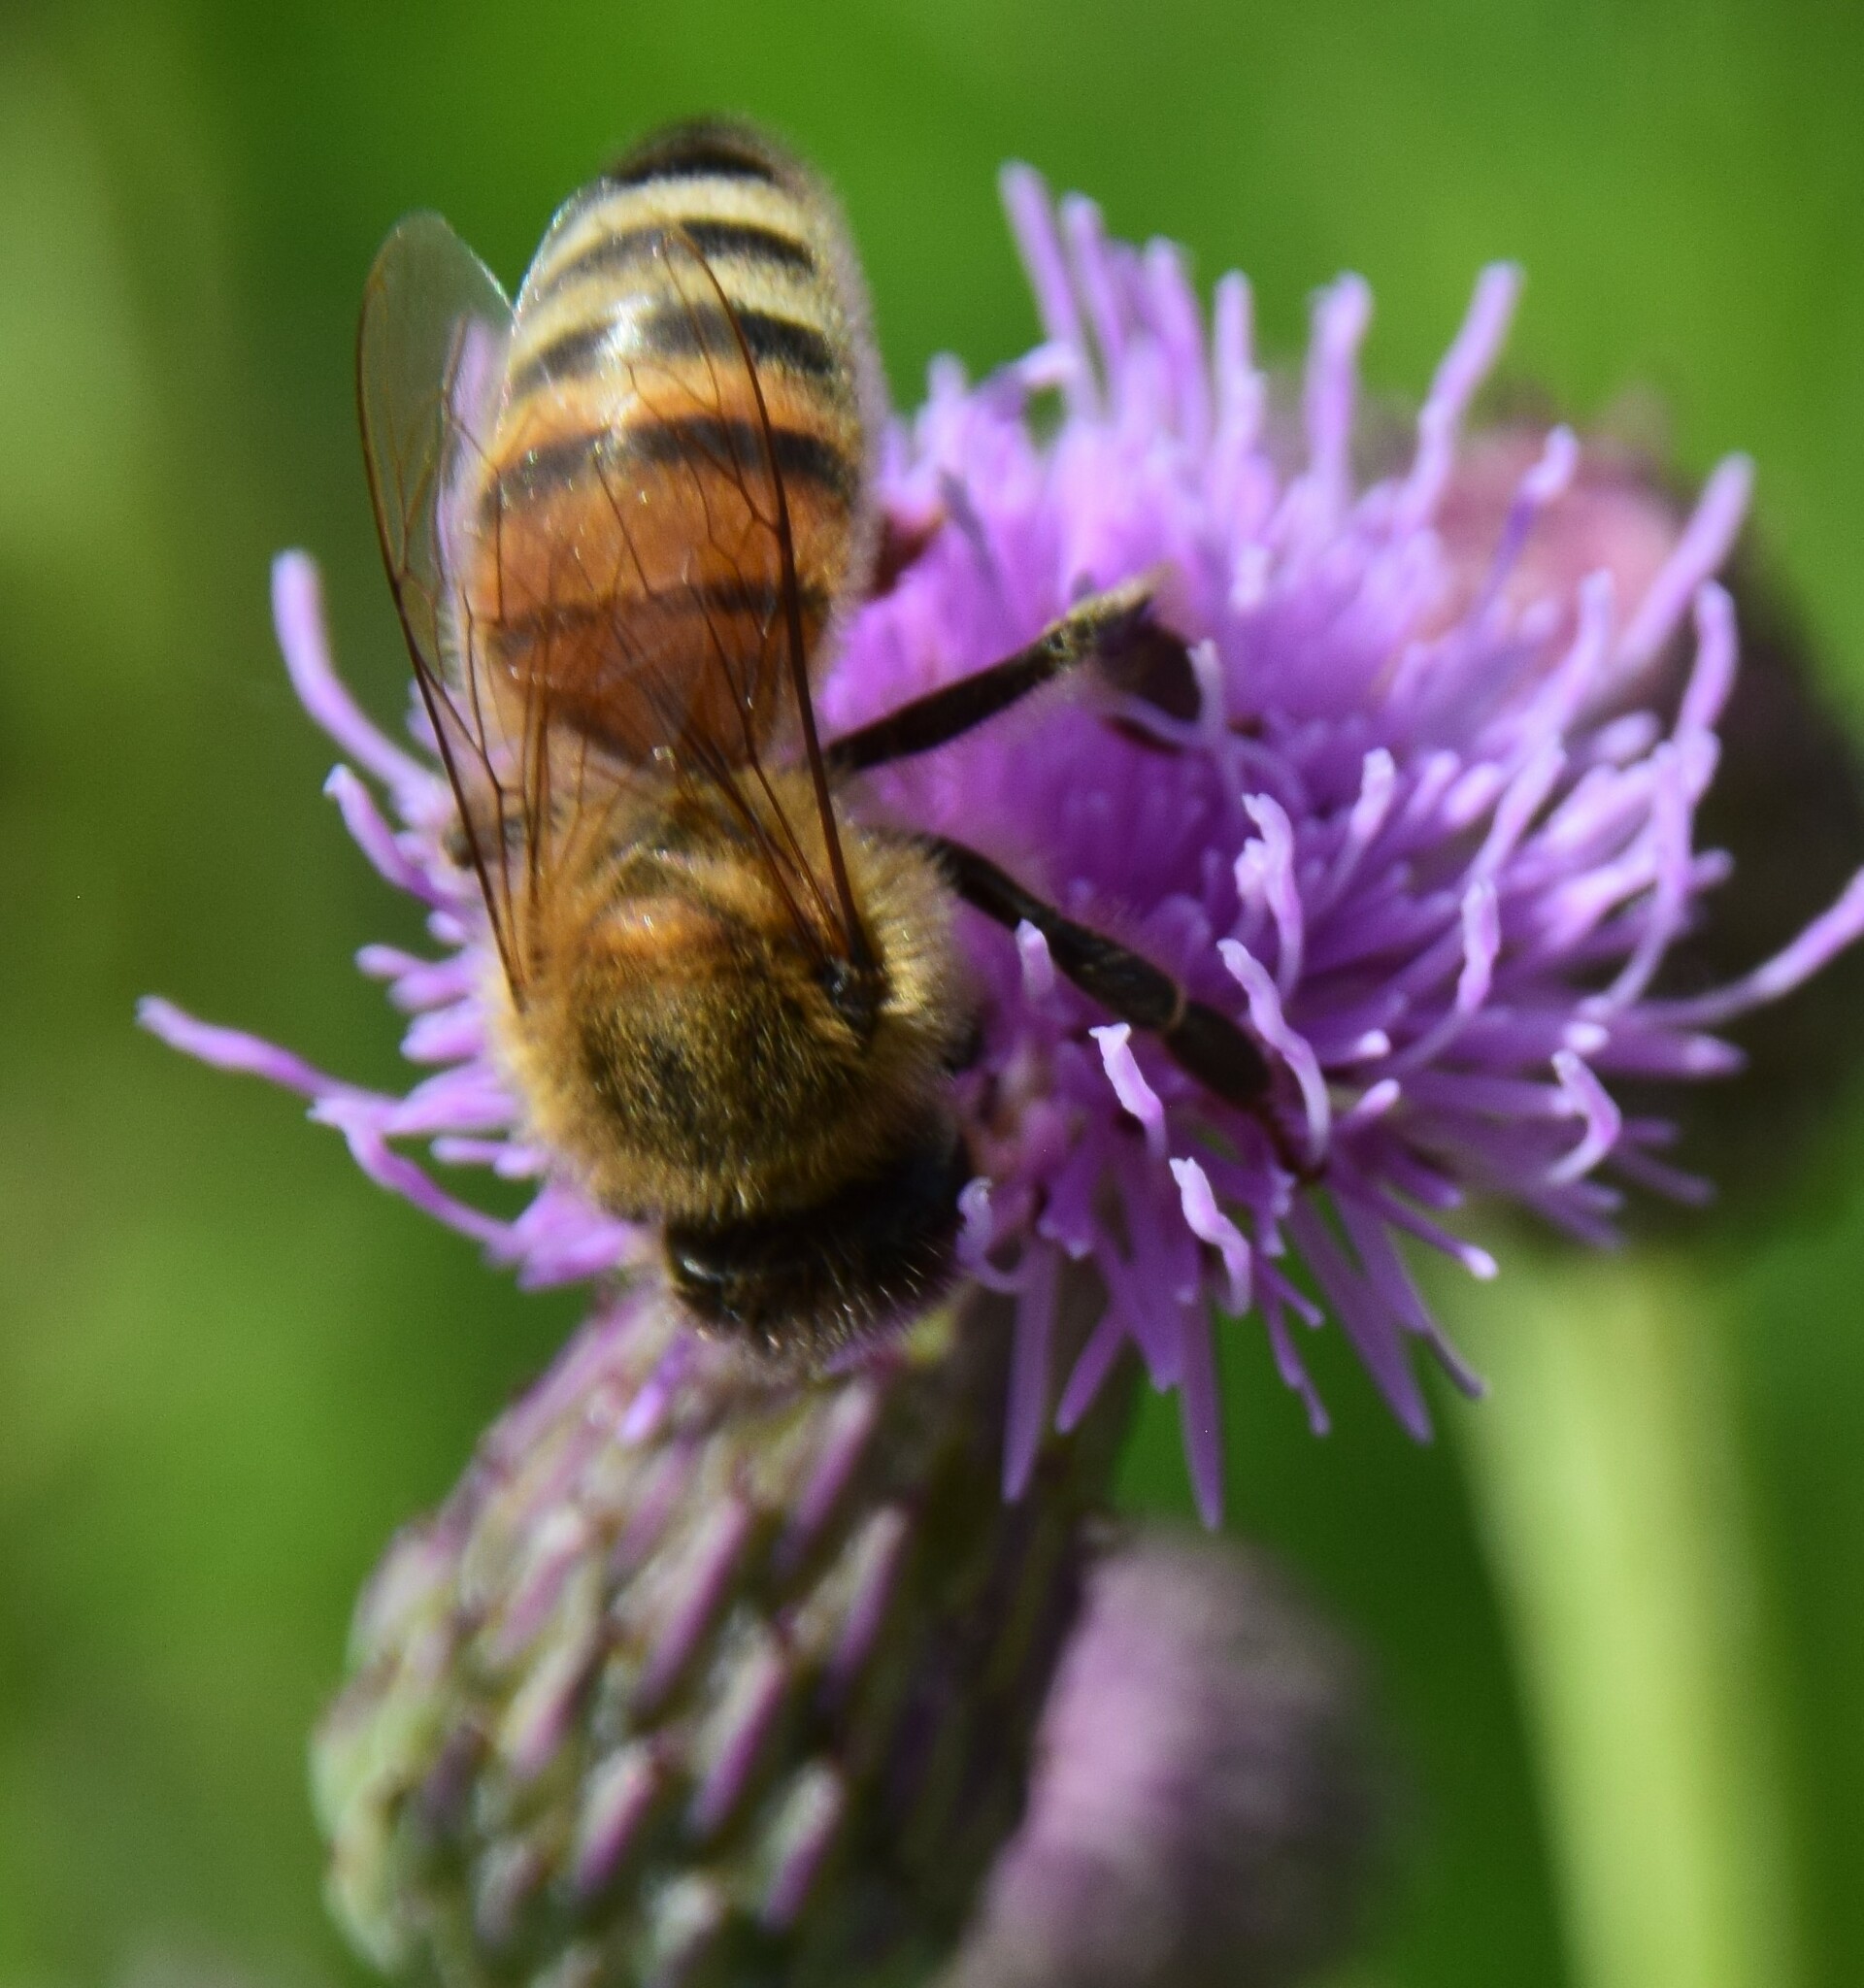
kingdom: Animalia
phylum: Arthropoda
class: Insecta
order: Hymenoptera
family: Apidae
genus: Apis
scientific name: Apis mellifera
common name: Honey bee
